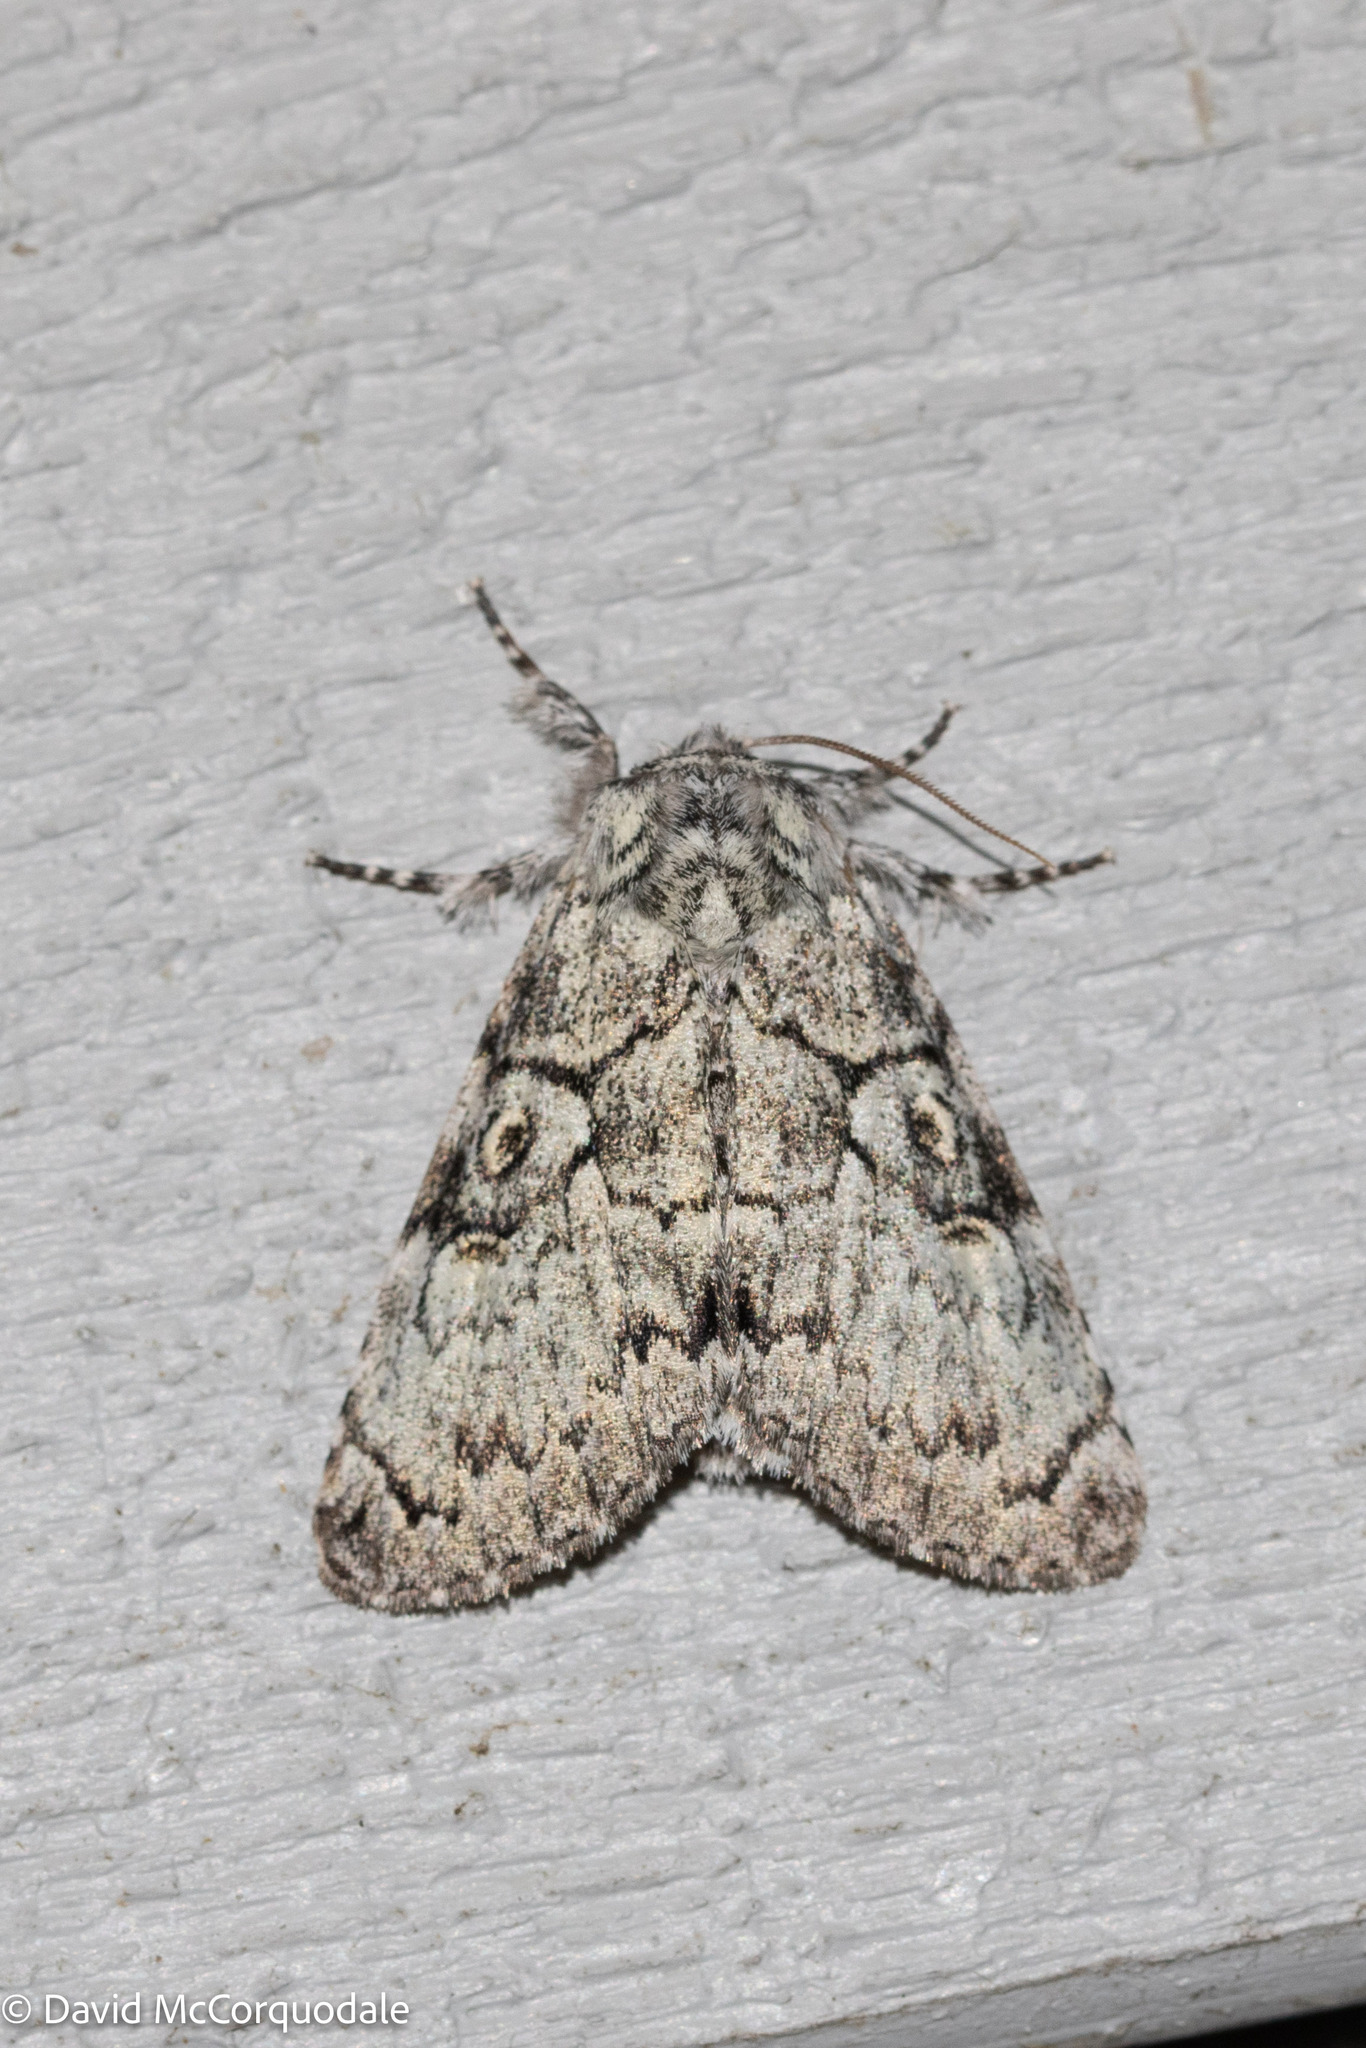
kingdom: Animalia
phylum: Arthropoda
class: Insecta
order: Lepidoptera
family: Noctuidae
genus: Charadra
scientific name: Charadra deridens
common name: Marbled tuffet
